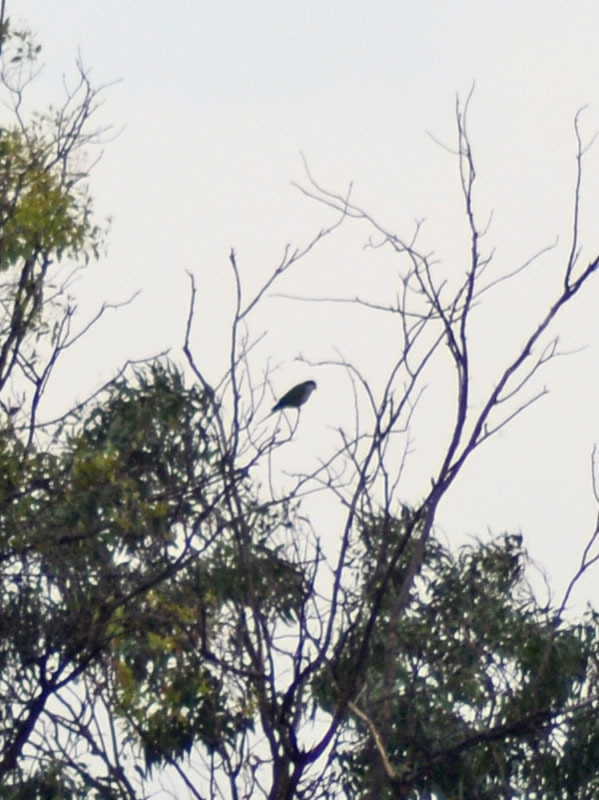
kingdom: Animalia
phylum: Chordata
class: Aves
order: Psittaciformes
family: Psittacidae
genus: Myiopsitta
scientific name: Myiopsitta monachus
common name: Monk parakeet
